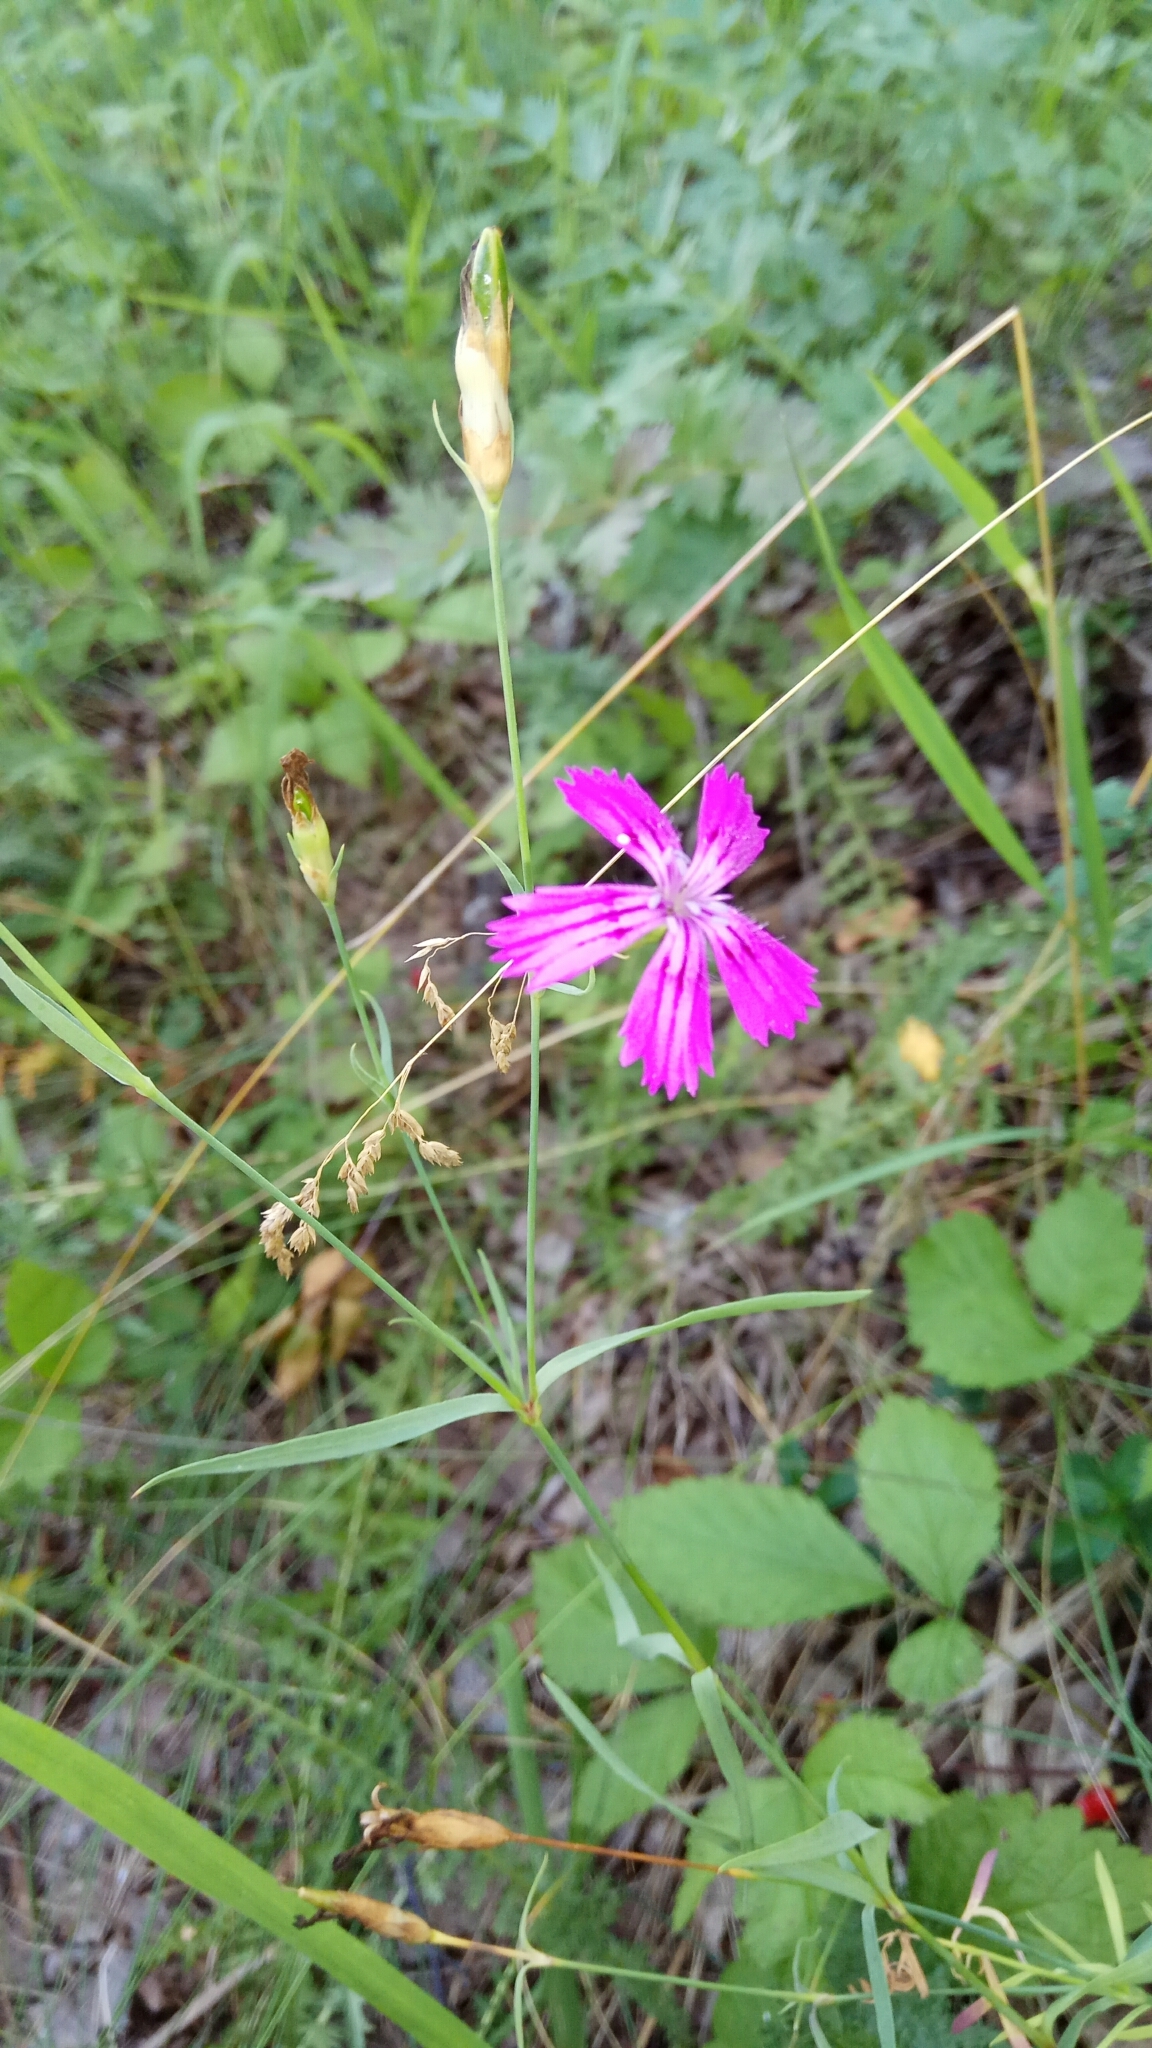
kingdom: Plantae
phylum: Tracheophyta
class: Magnoliopsida
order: Caryophyllales
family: Caryophyllaceae
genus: Dianthus
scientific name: Dianthus deltoides
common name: Maiden pink
